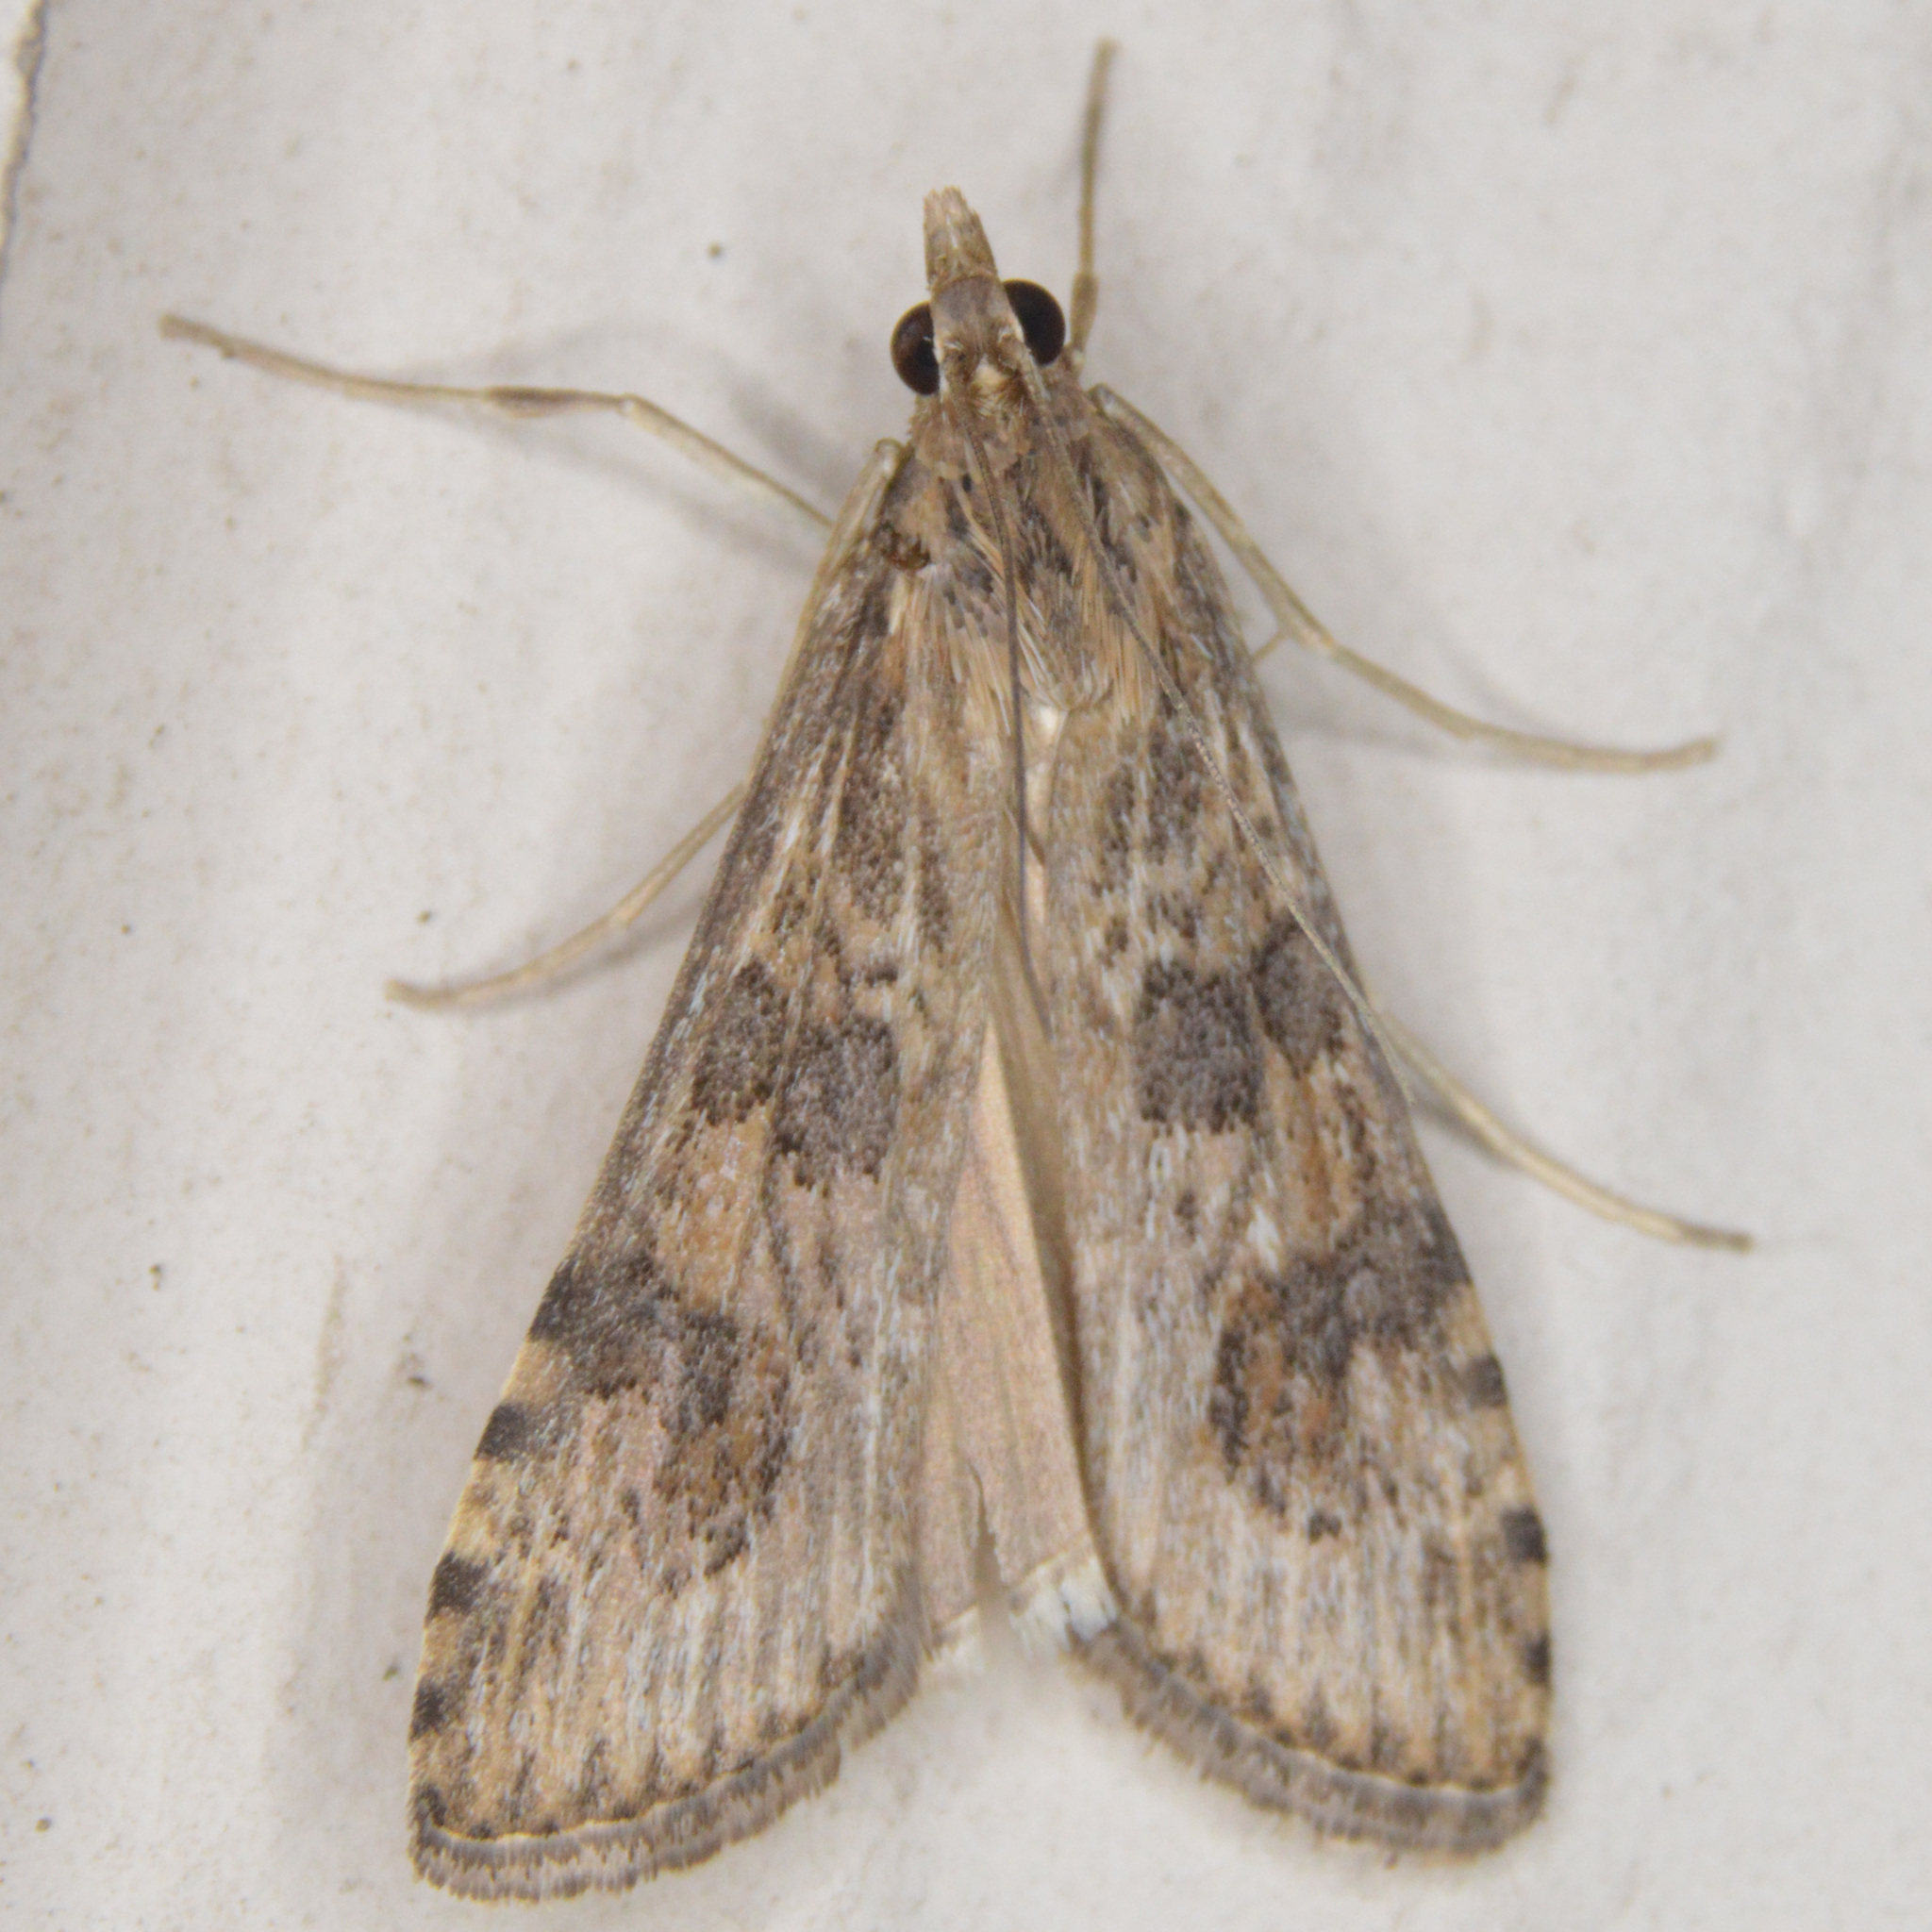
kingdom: Animalia
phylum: Arthropoda
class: Insecta
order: Lepidoptera
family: Crambidae
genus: Nomophila
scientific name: Nomophila nearctica
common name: American rush veneer
